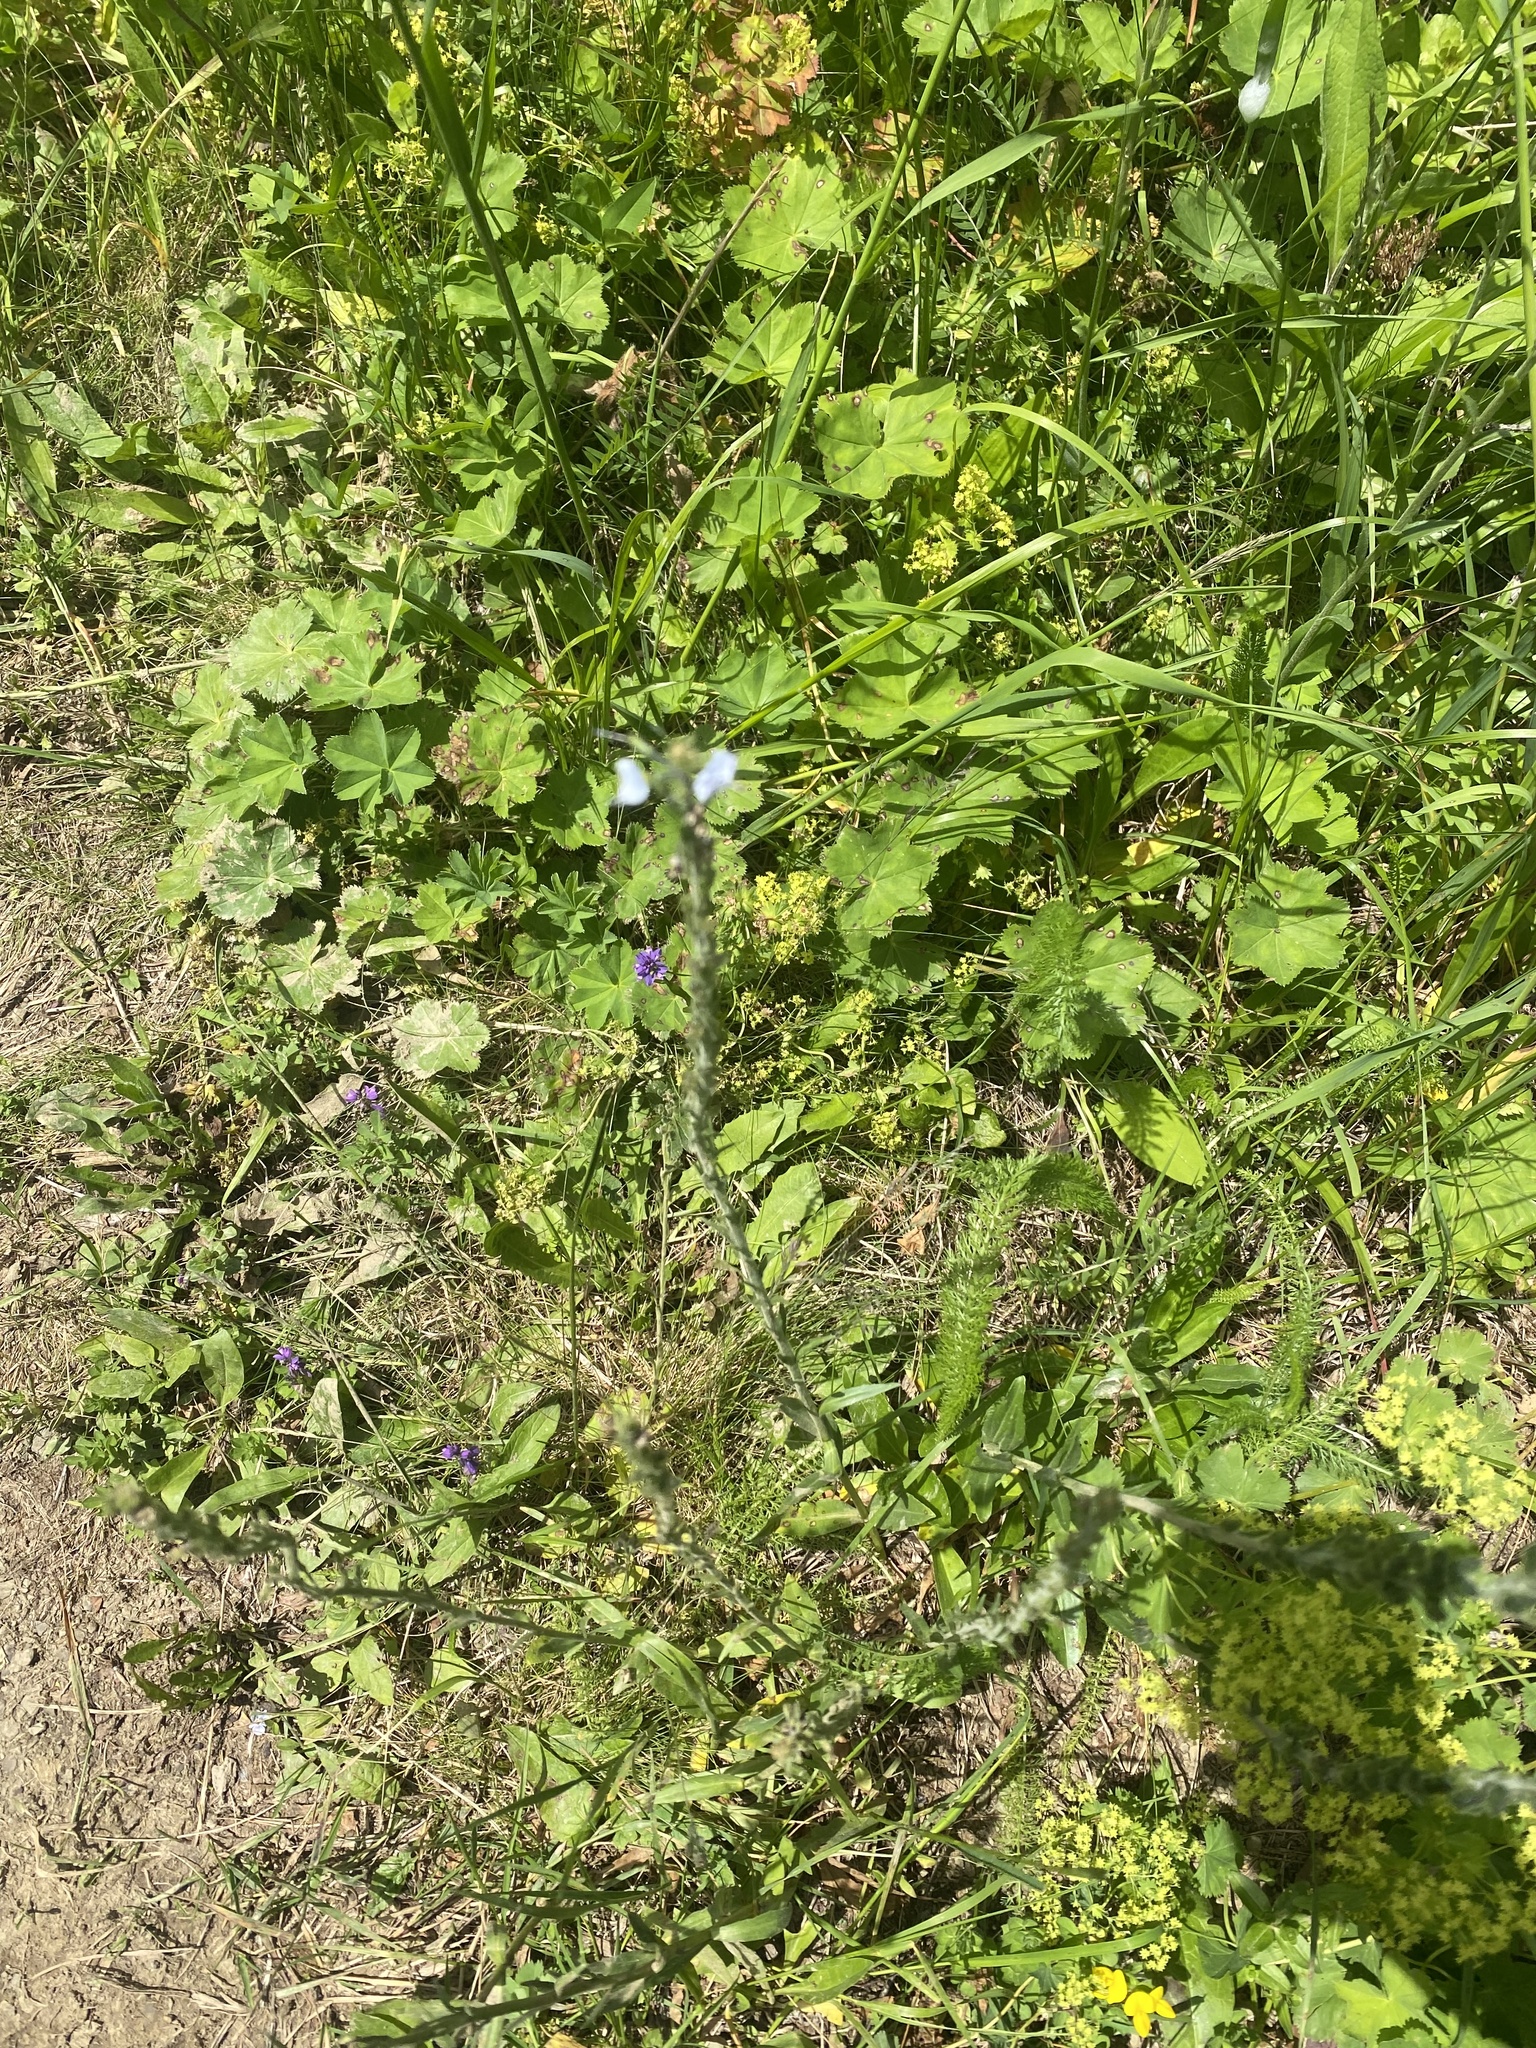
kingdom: Plantae
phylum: Tracheophyta
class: Magnoliopsida
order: Lamiales
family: Plantaginaceae
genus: Veronica
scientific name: Veronica gentianoides
